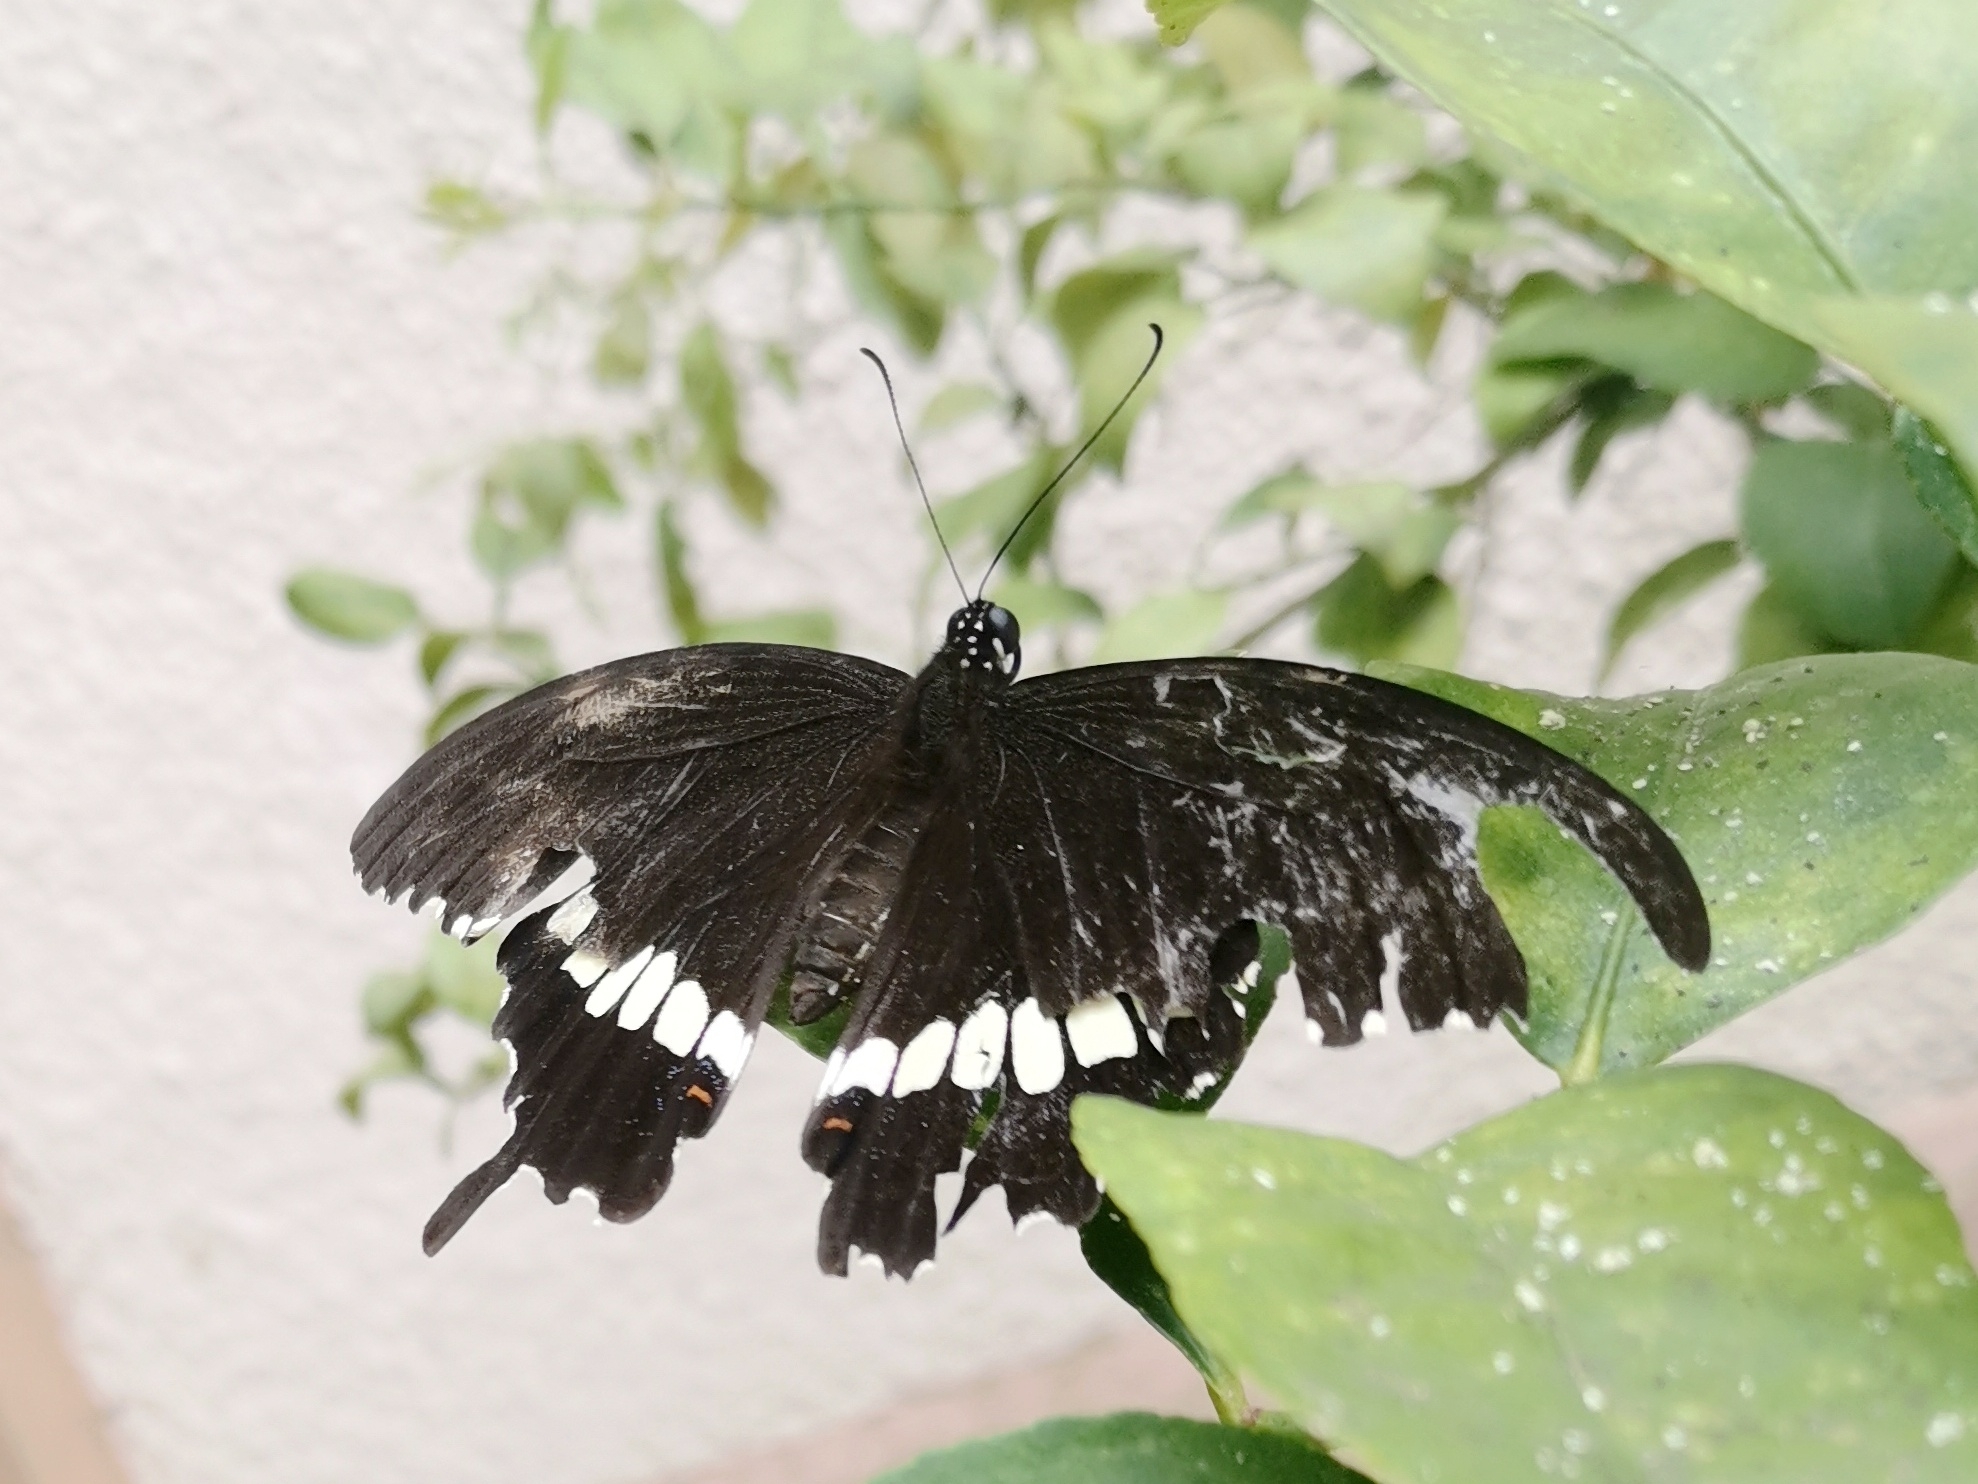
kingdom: Animalia
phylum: Arthropoda
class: Insecta
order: Lepidoptera
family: Papilionidae
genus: Papilio
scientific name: Papilio polytes
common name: Common mormon
